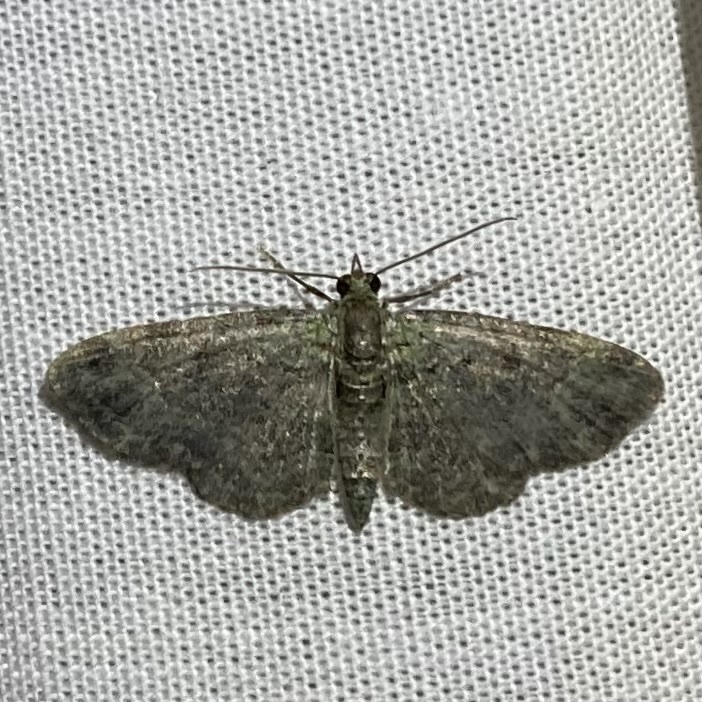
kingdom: Animalia
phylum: Arthropoda
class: Insecta
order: Lepidoptera
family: Geometridae
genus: Pasiphila
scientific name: Pasiphila rectangulata
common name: Green pug
